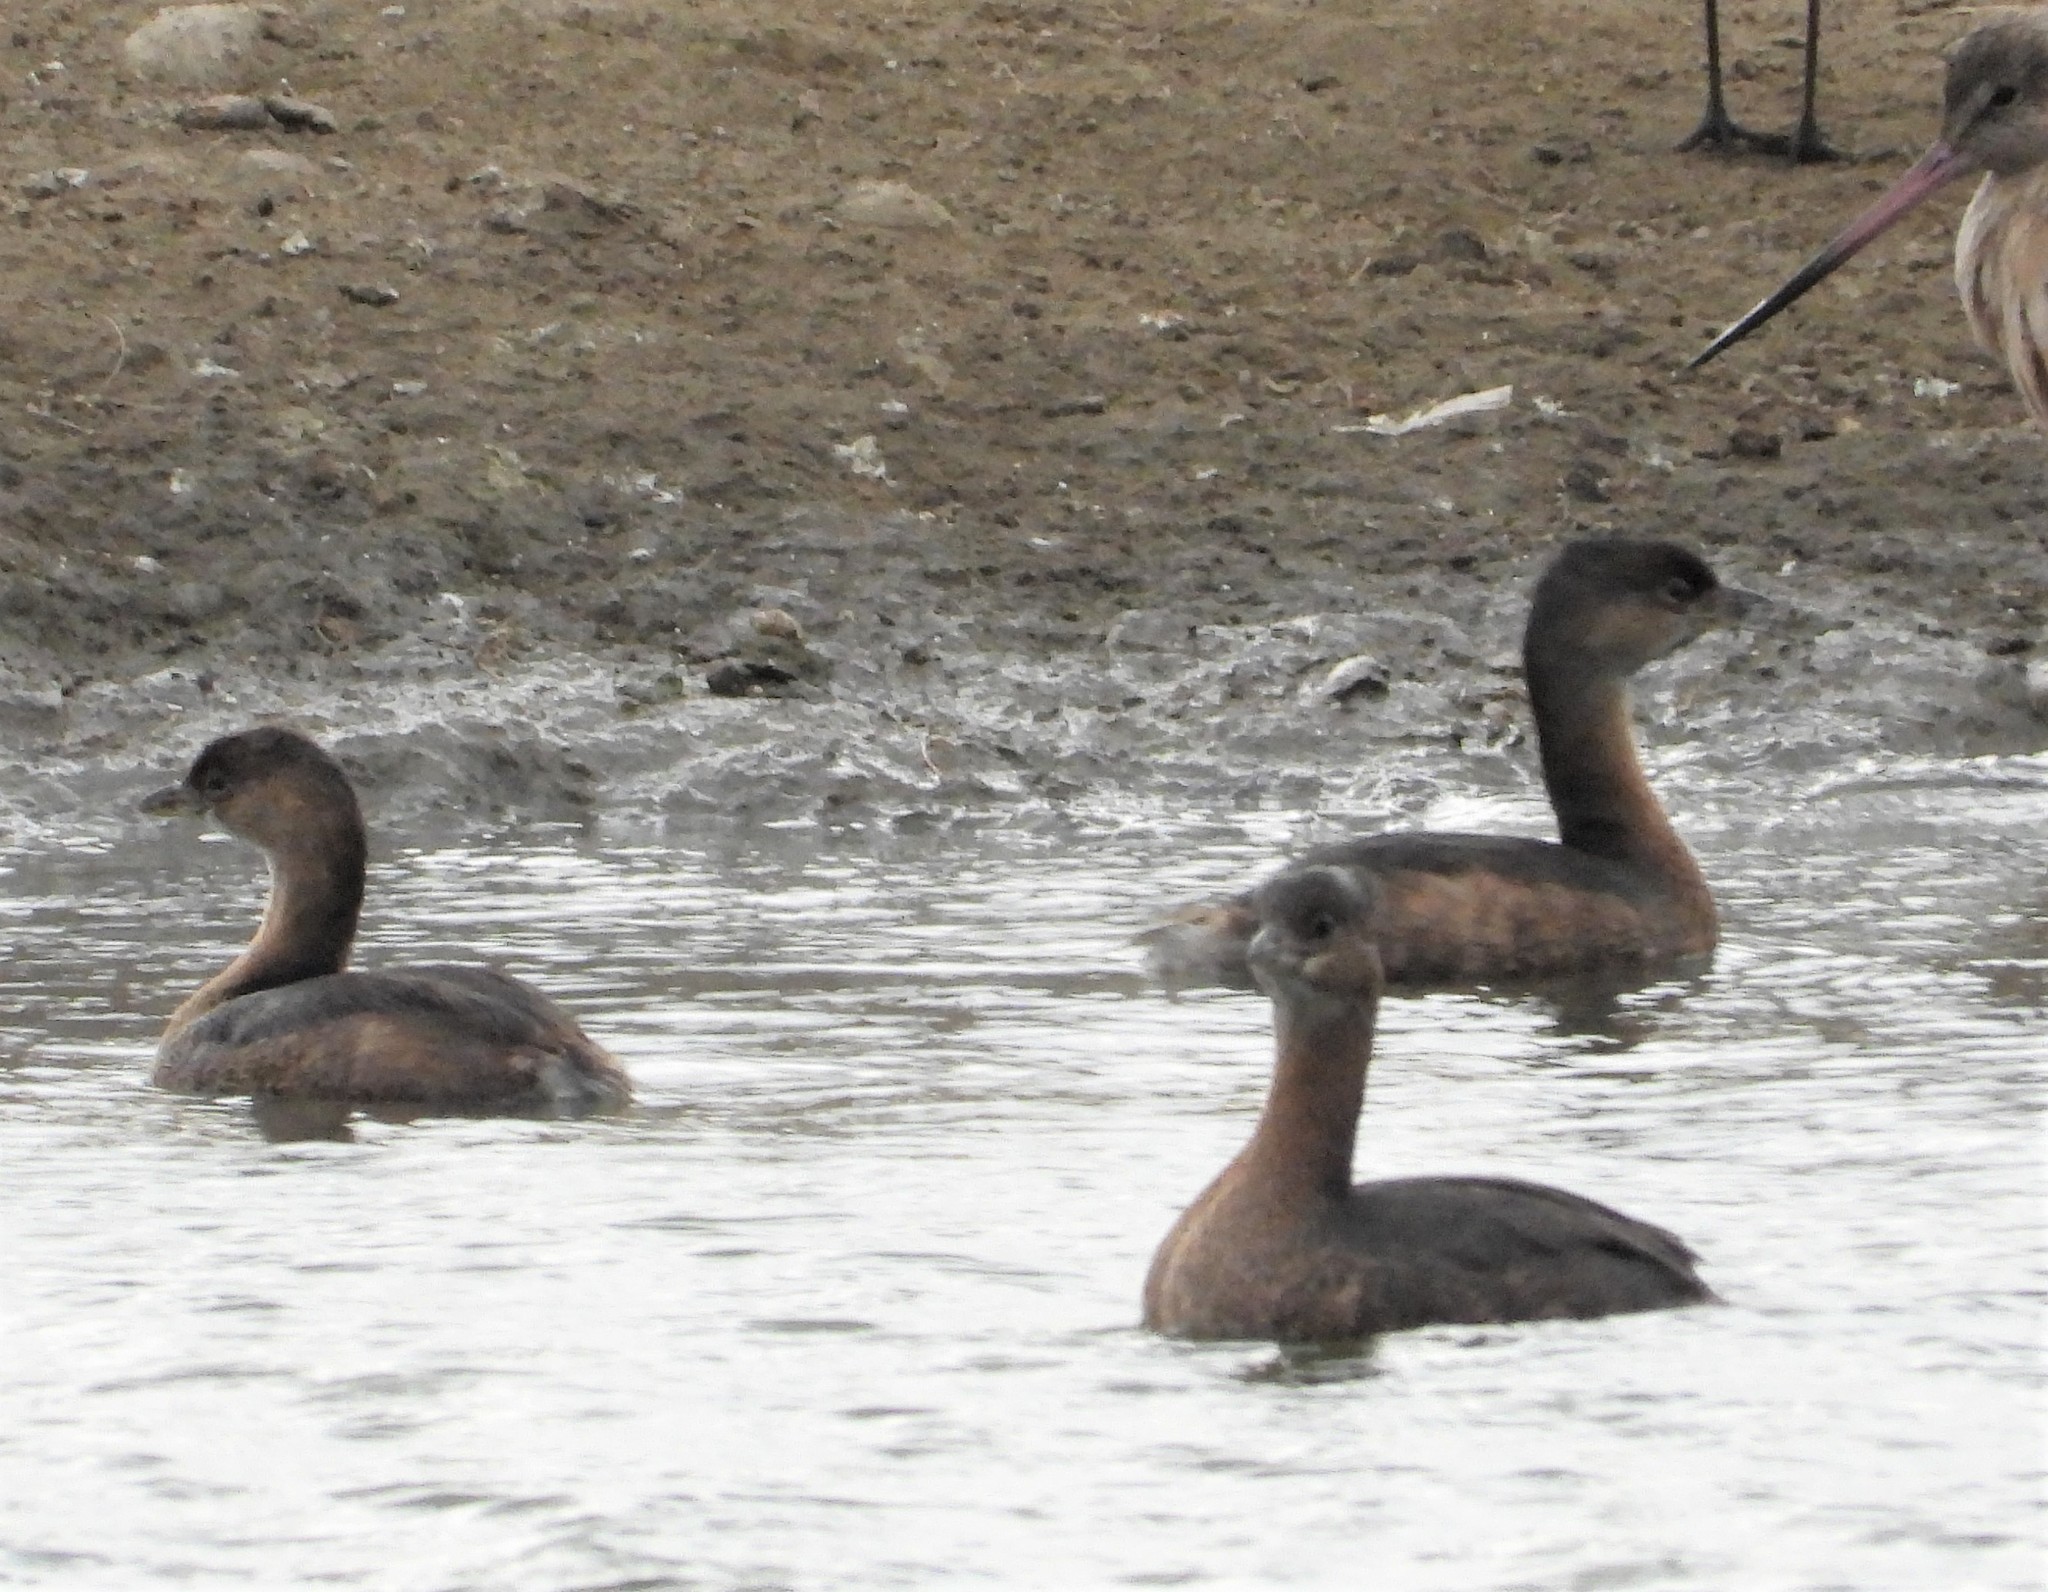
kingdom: Animalia
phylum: Chordata
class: Aves
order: Podicipediformes
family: Podicipedidae
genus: Podilymbus
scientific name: Podilymbus podiceps
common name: Pied-billed grebe
